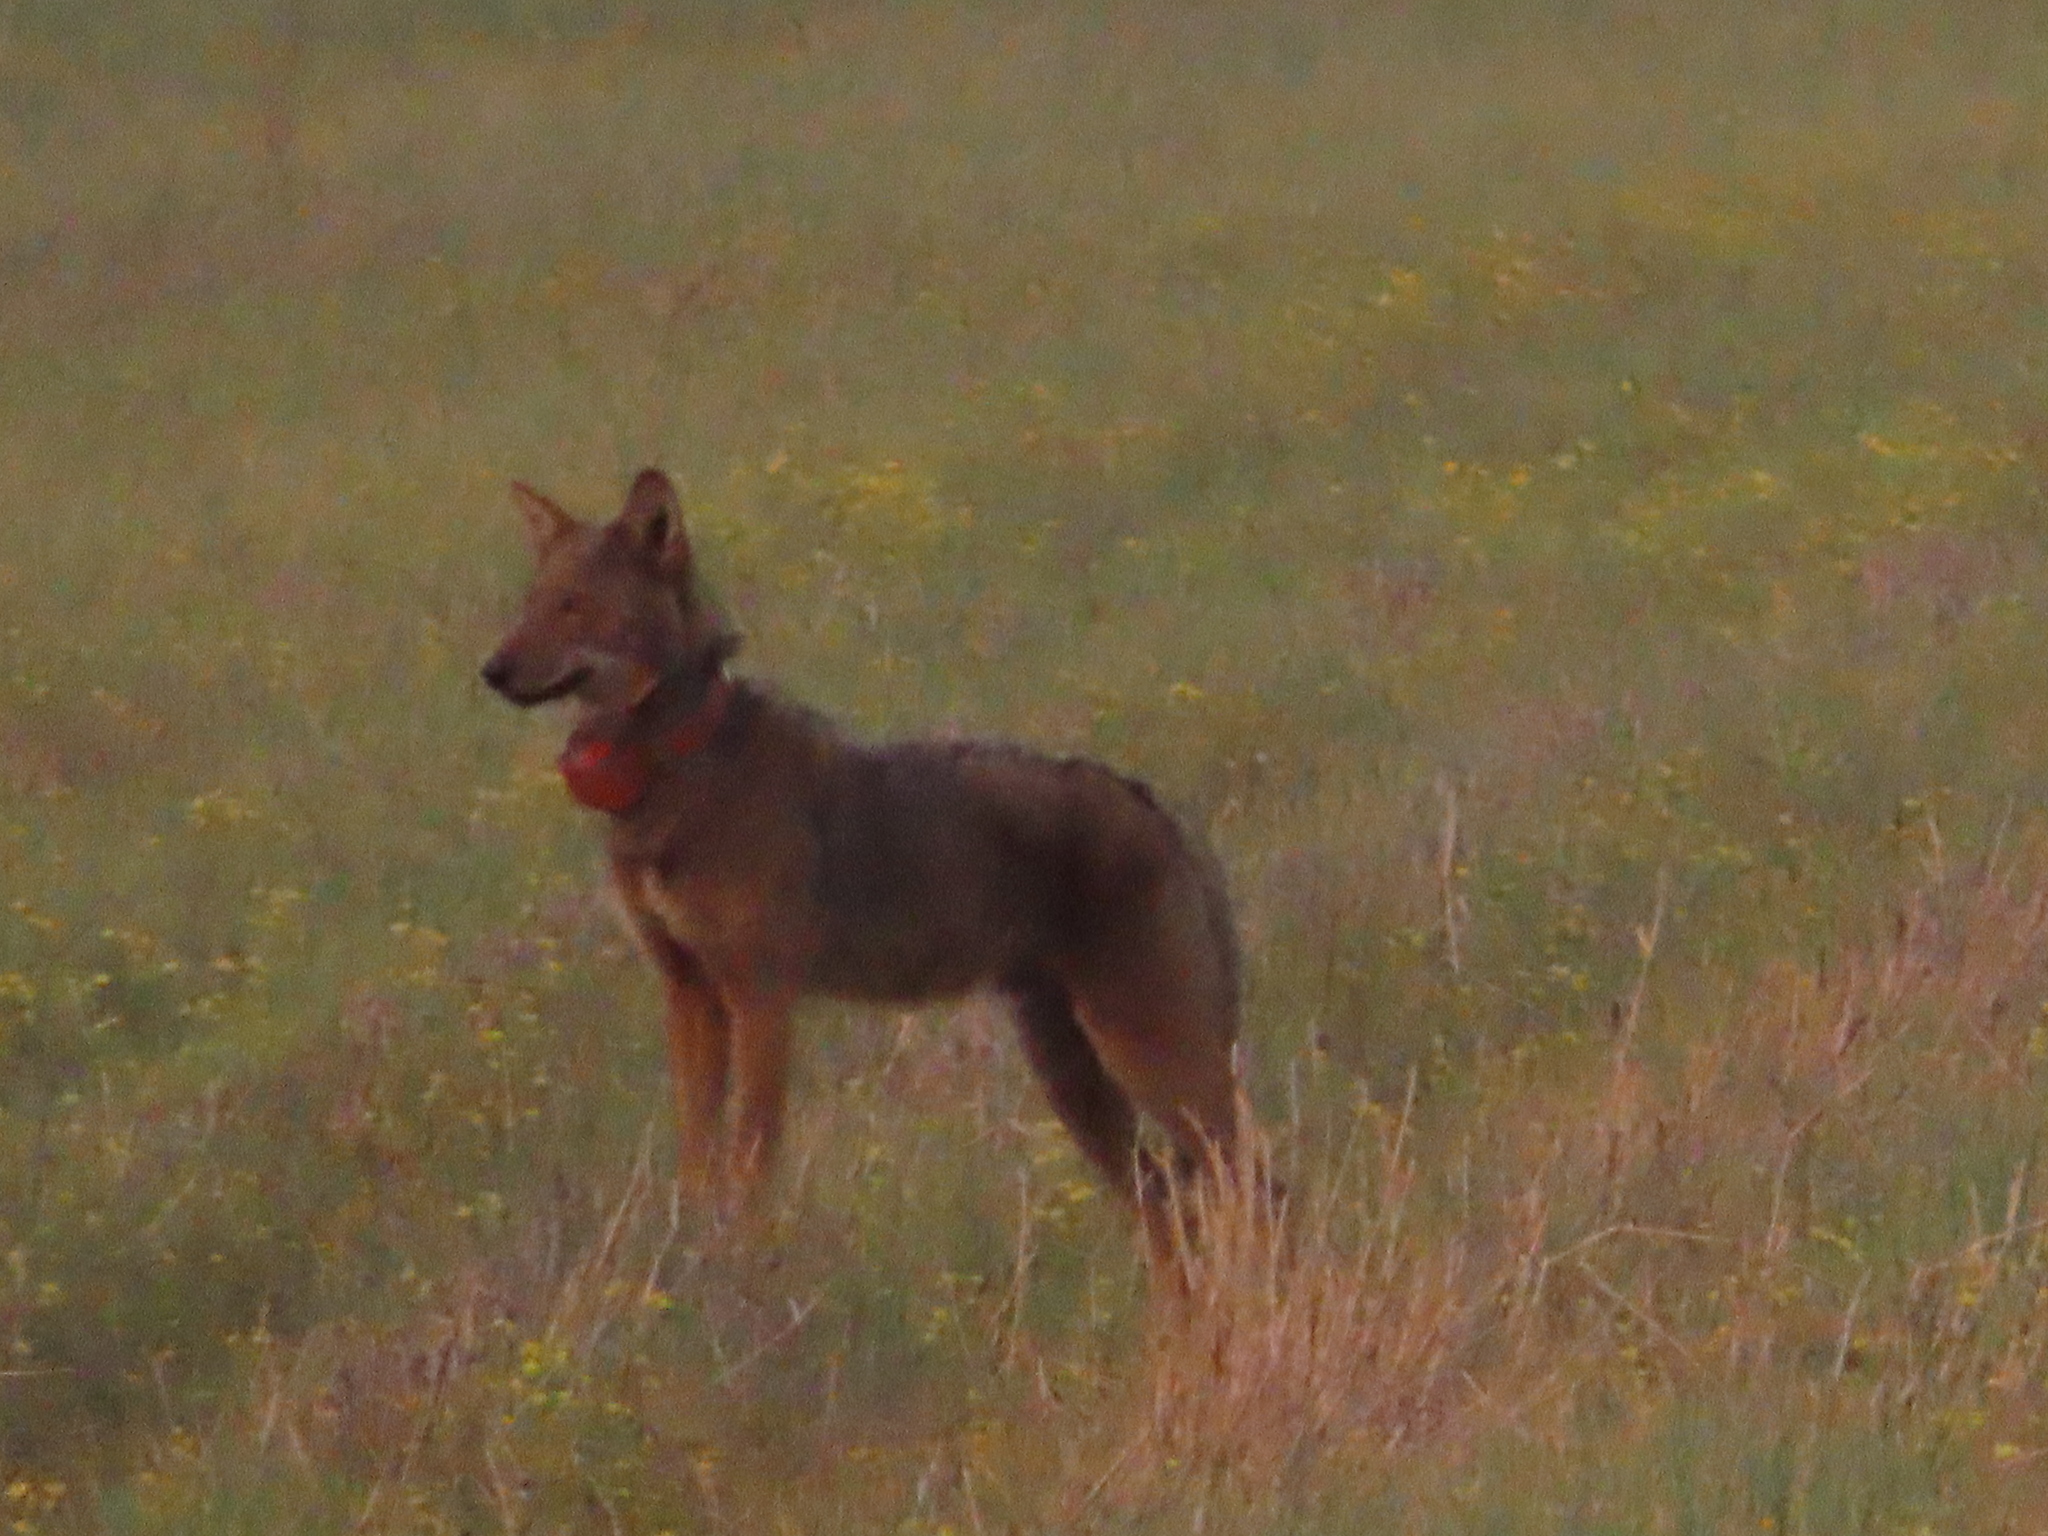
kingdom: Animalia
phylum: Chordata
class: Mammalia
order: Carnivora
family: Canidae
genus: Canis
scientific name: Canis lupus
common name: Gray wolf
